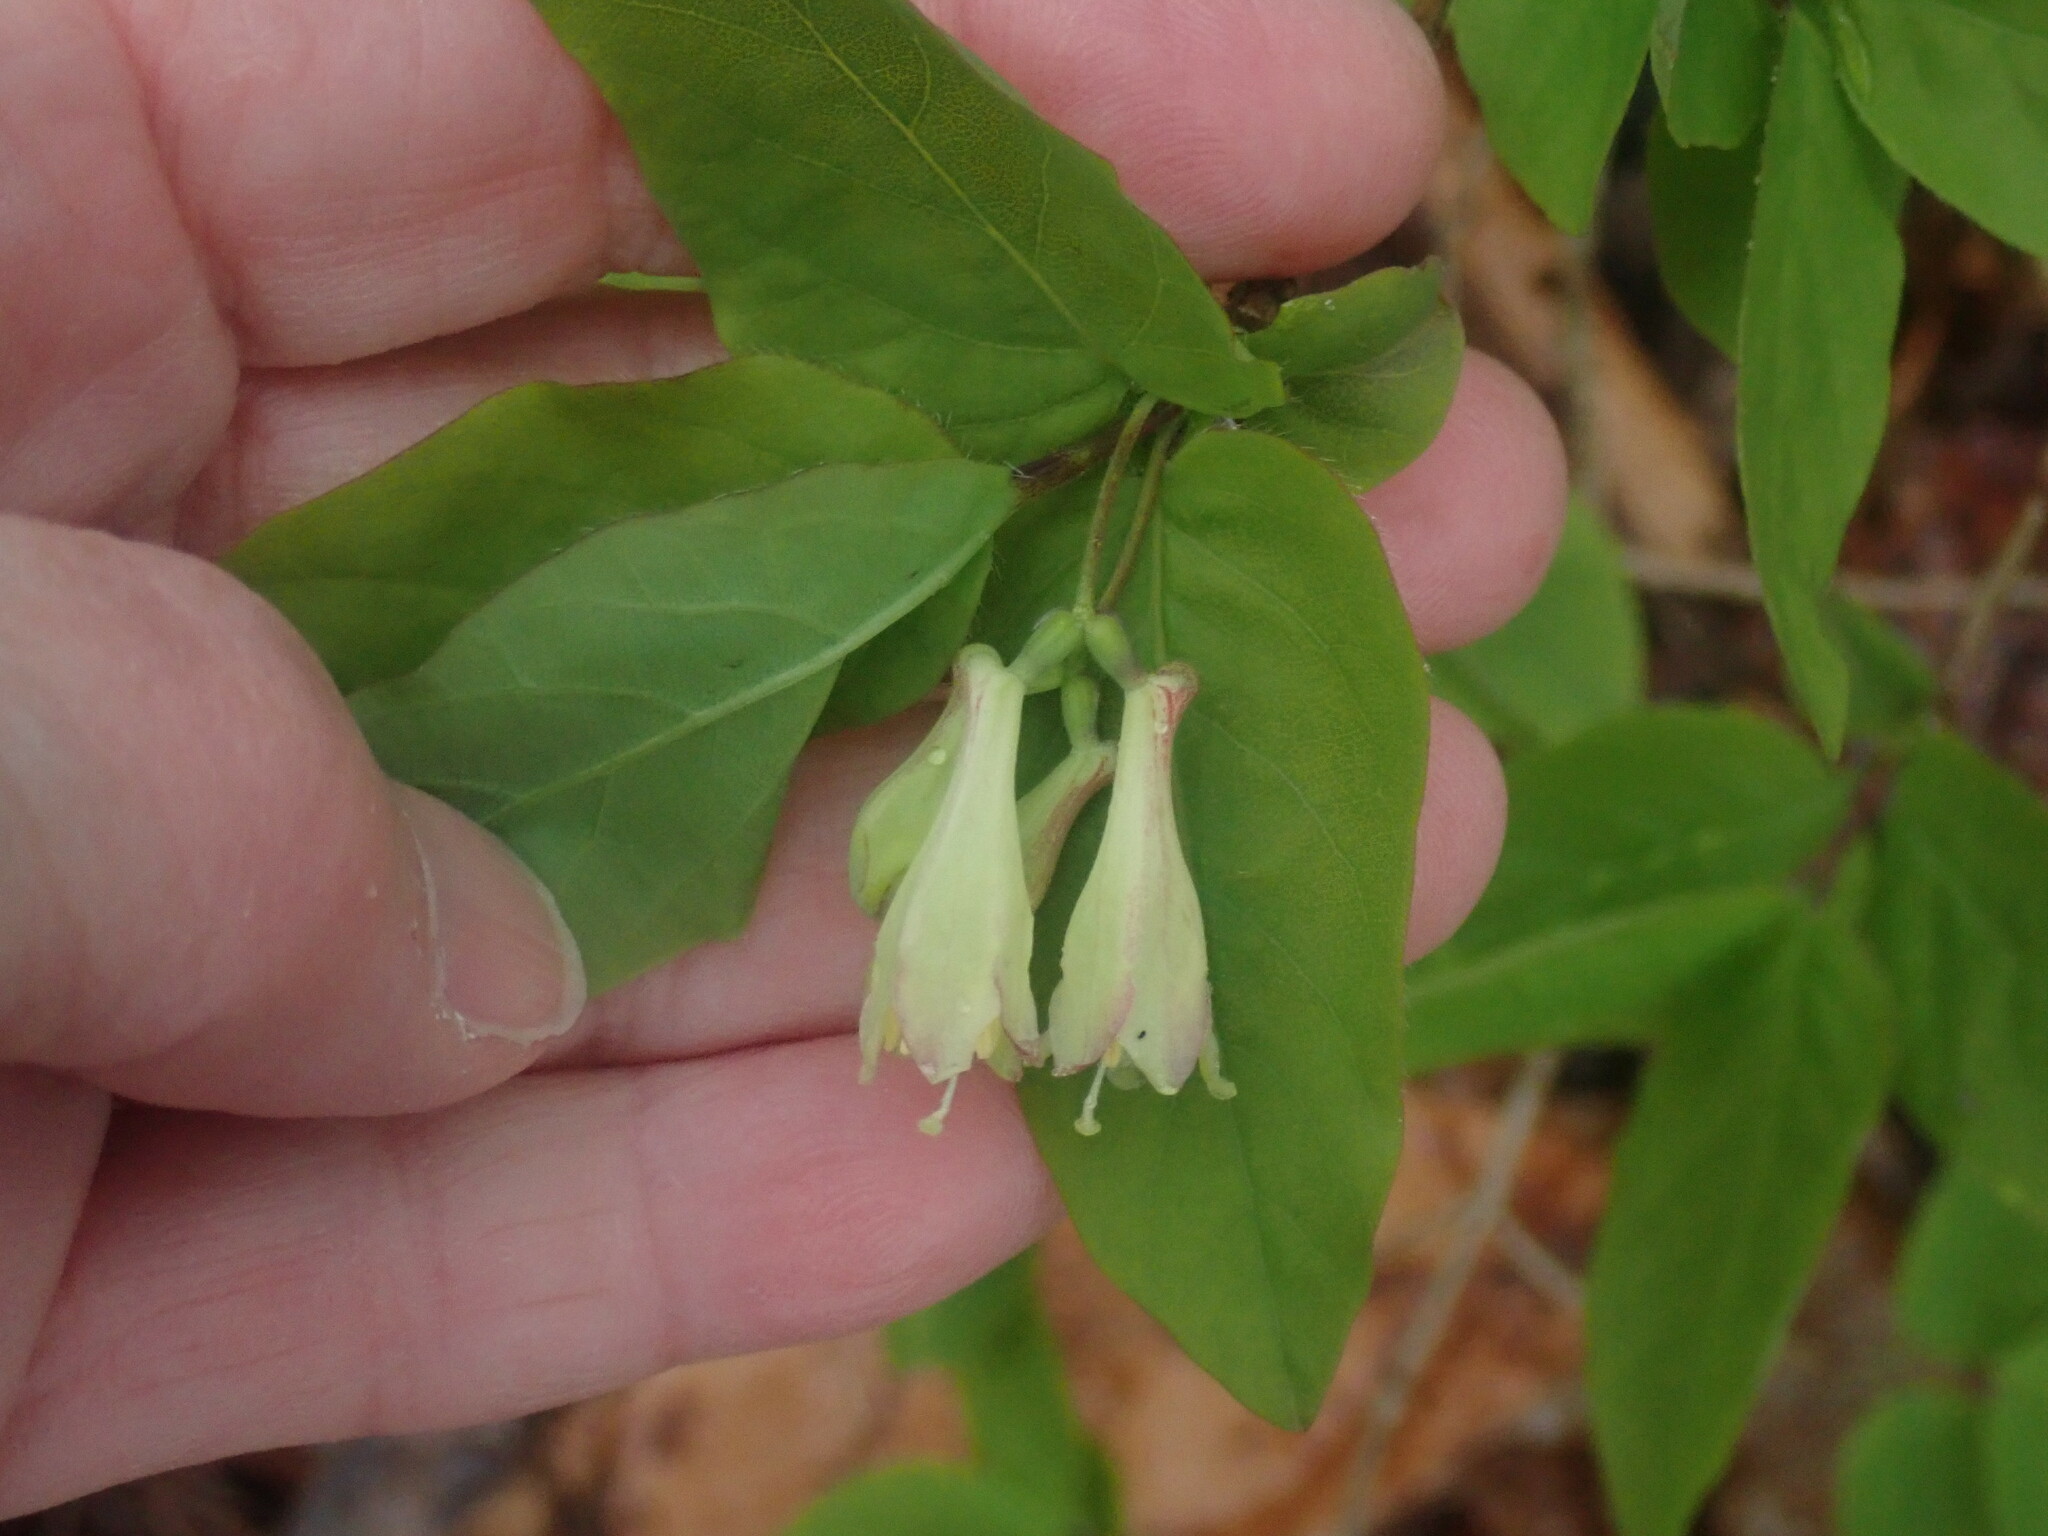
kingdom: Plantae
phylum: Tracheophyta
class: Magnoliopsida
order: Dipsacales
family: Caprifoliaceae
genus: Lonicera
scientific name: Lonicera canadensis
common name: American fly-honeysuckle
